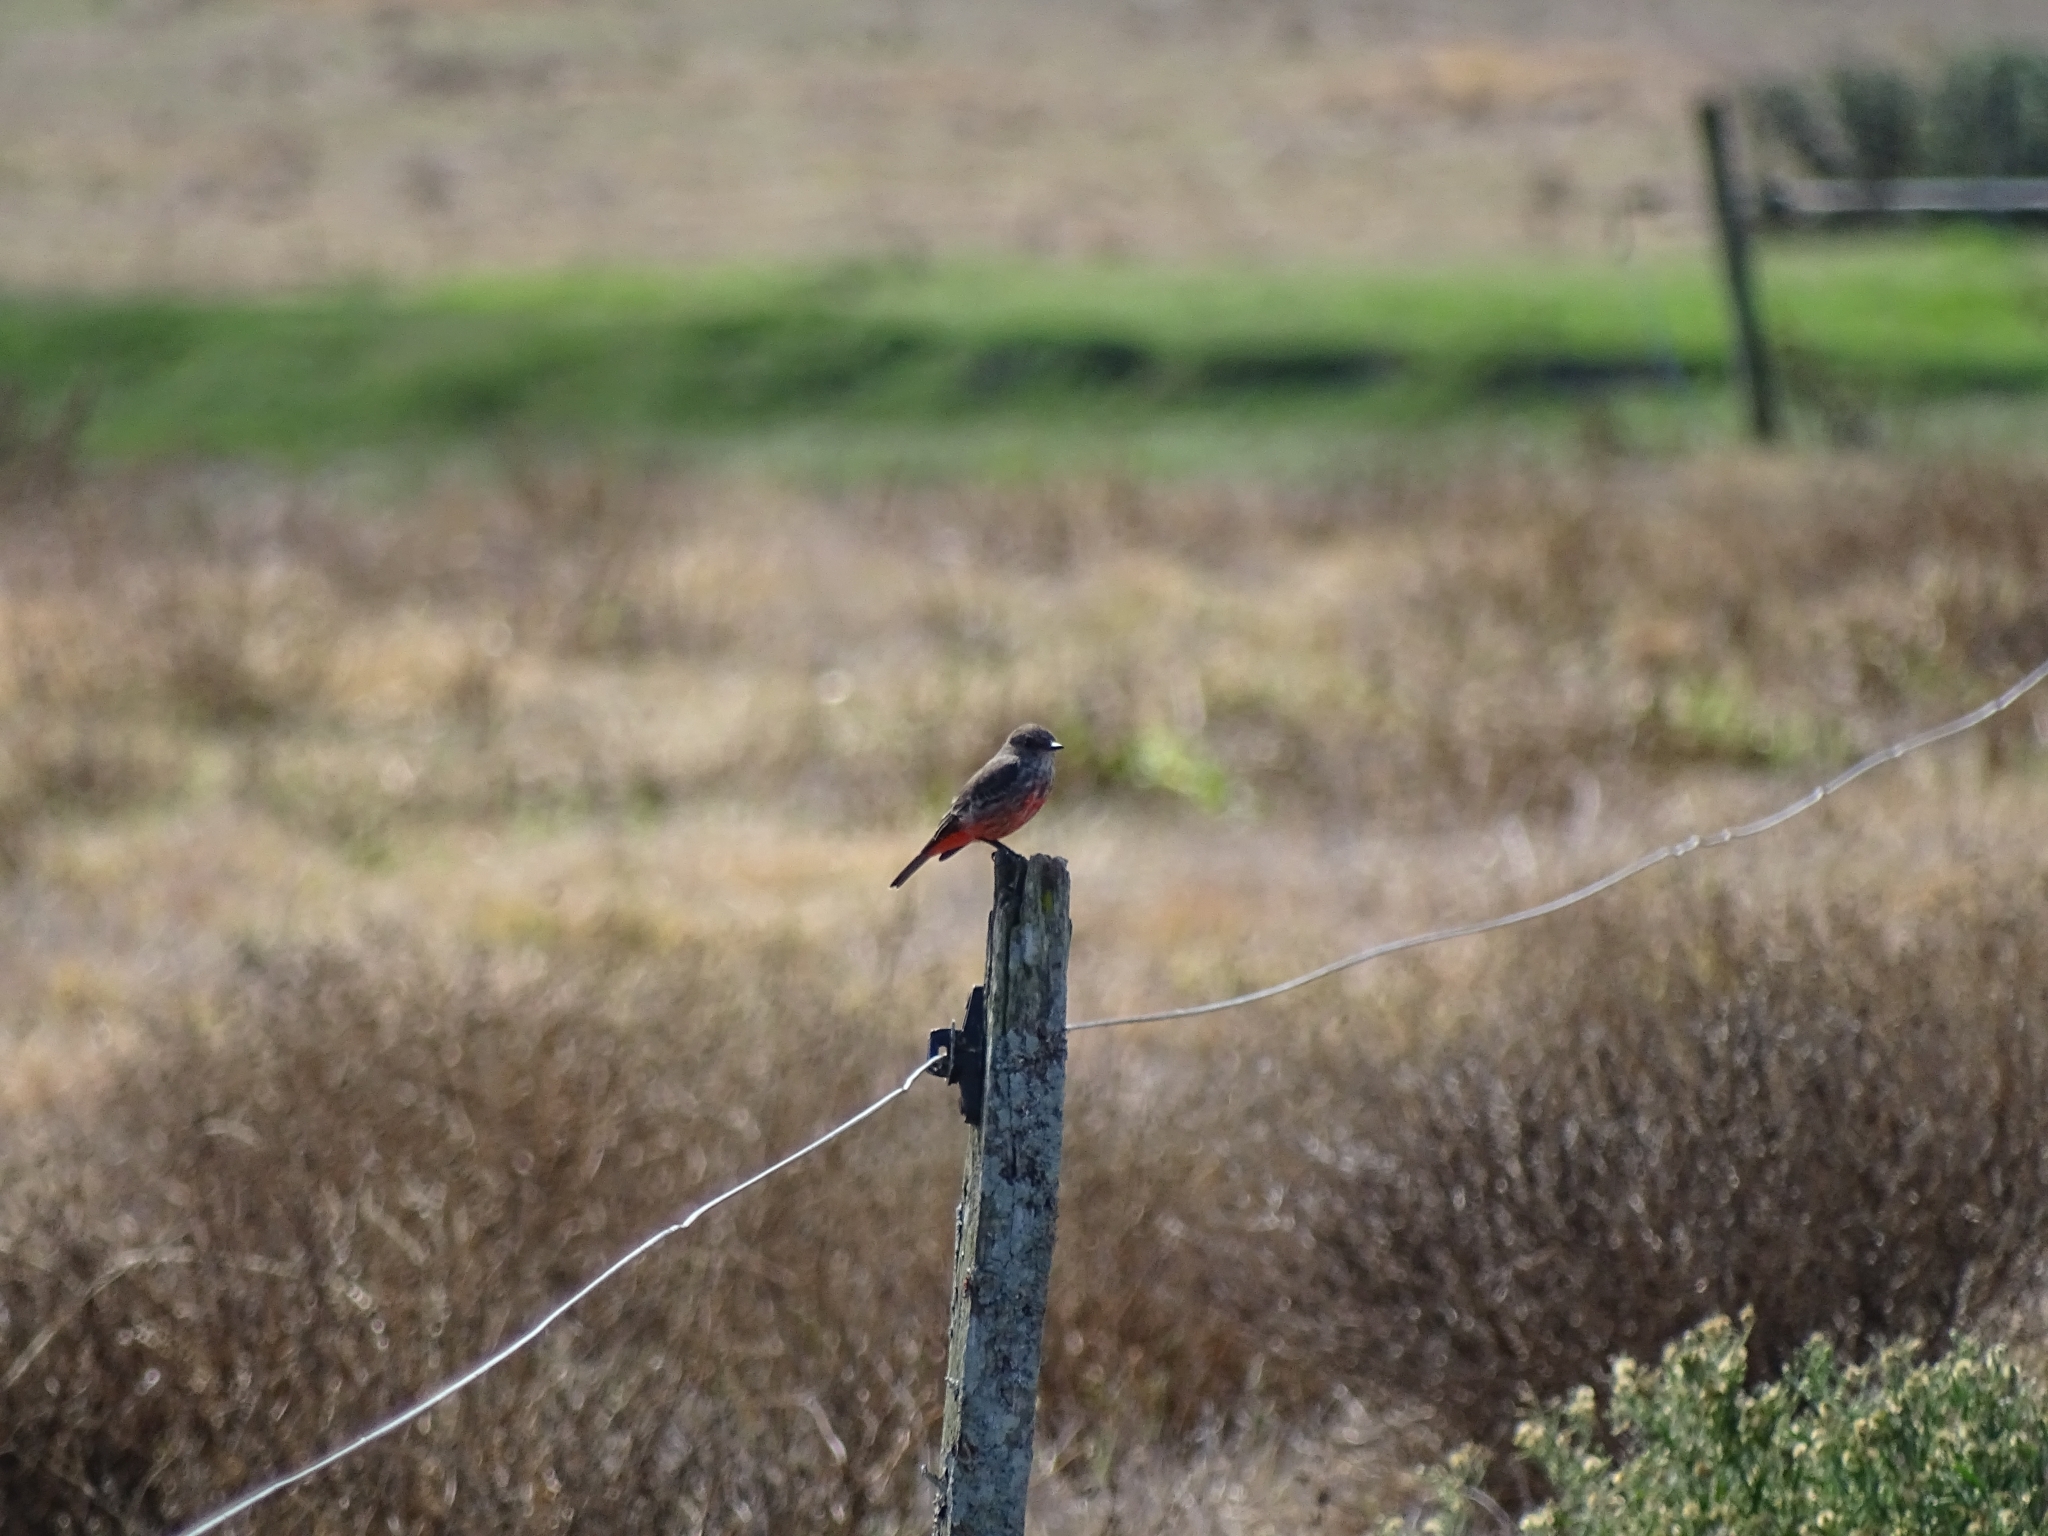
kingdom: Animalia
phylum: Chordata
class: Aves
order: Passeriformes
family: Tyrannidae
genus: Pyrocephalus
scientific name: Pyrocephalus rubinus
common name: Vermilion flycatcher
